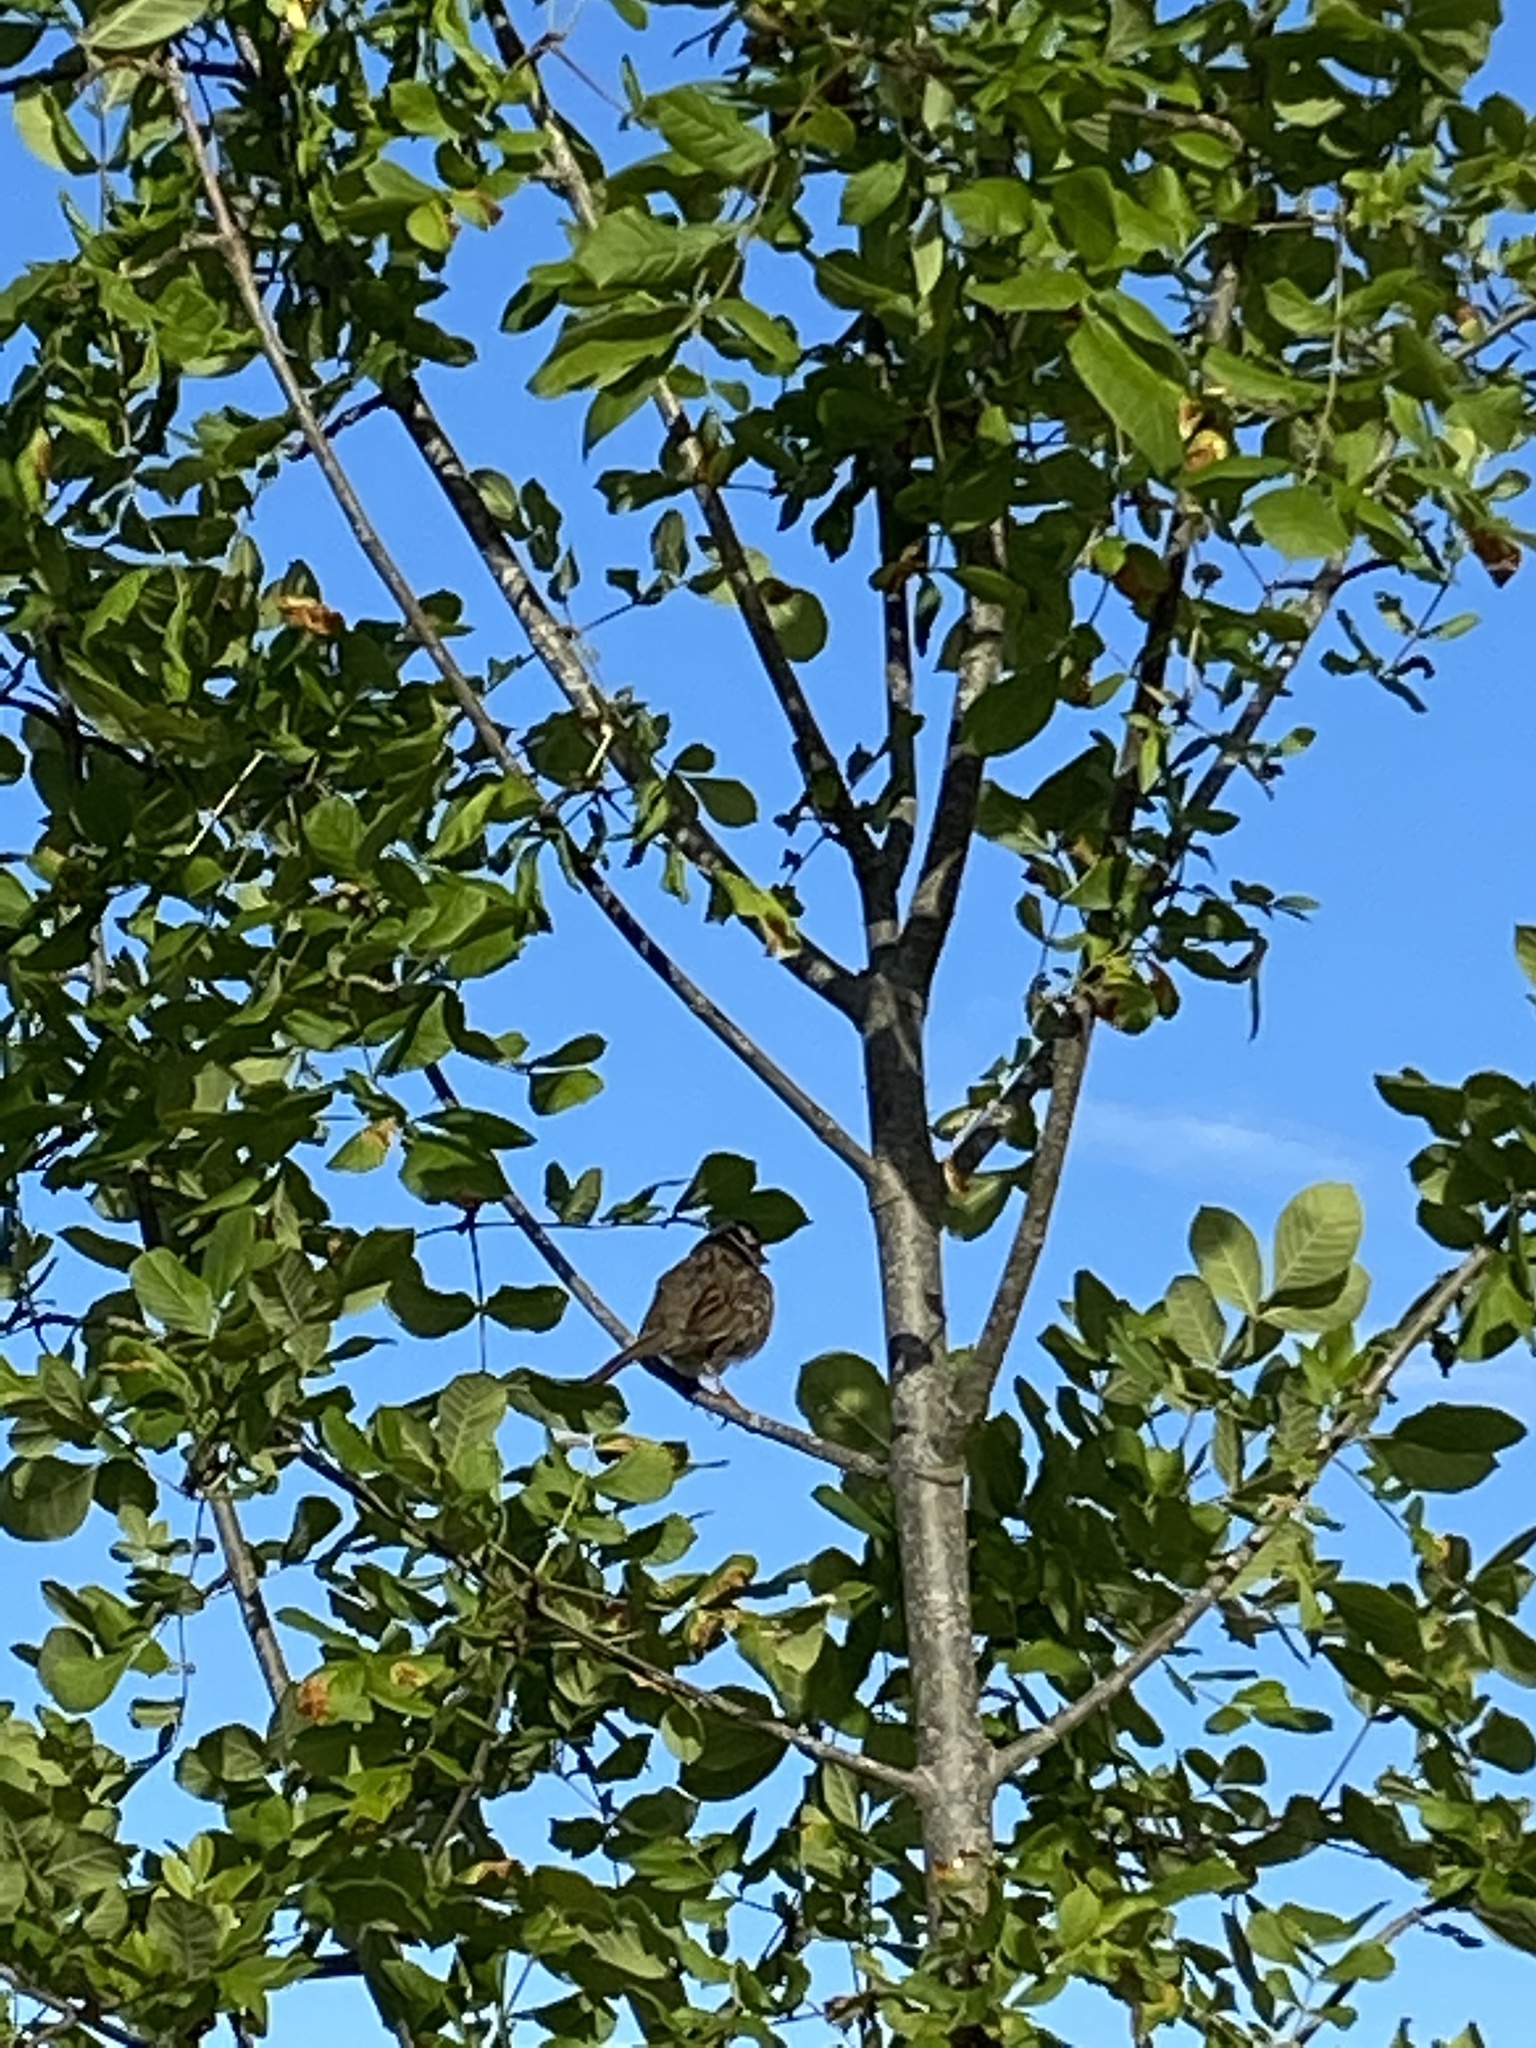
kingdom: Animalia
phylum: Chordata
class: Aves
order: Passeriformes
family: Passerellidae
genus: Zonotrichia
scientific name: Zonotrichia leucophrys
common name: White-crowned sparrow
